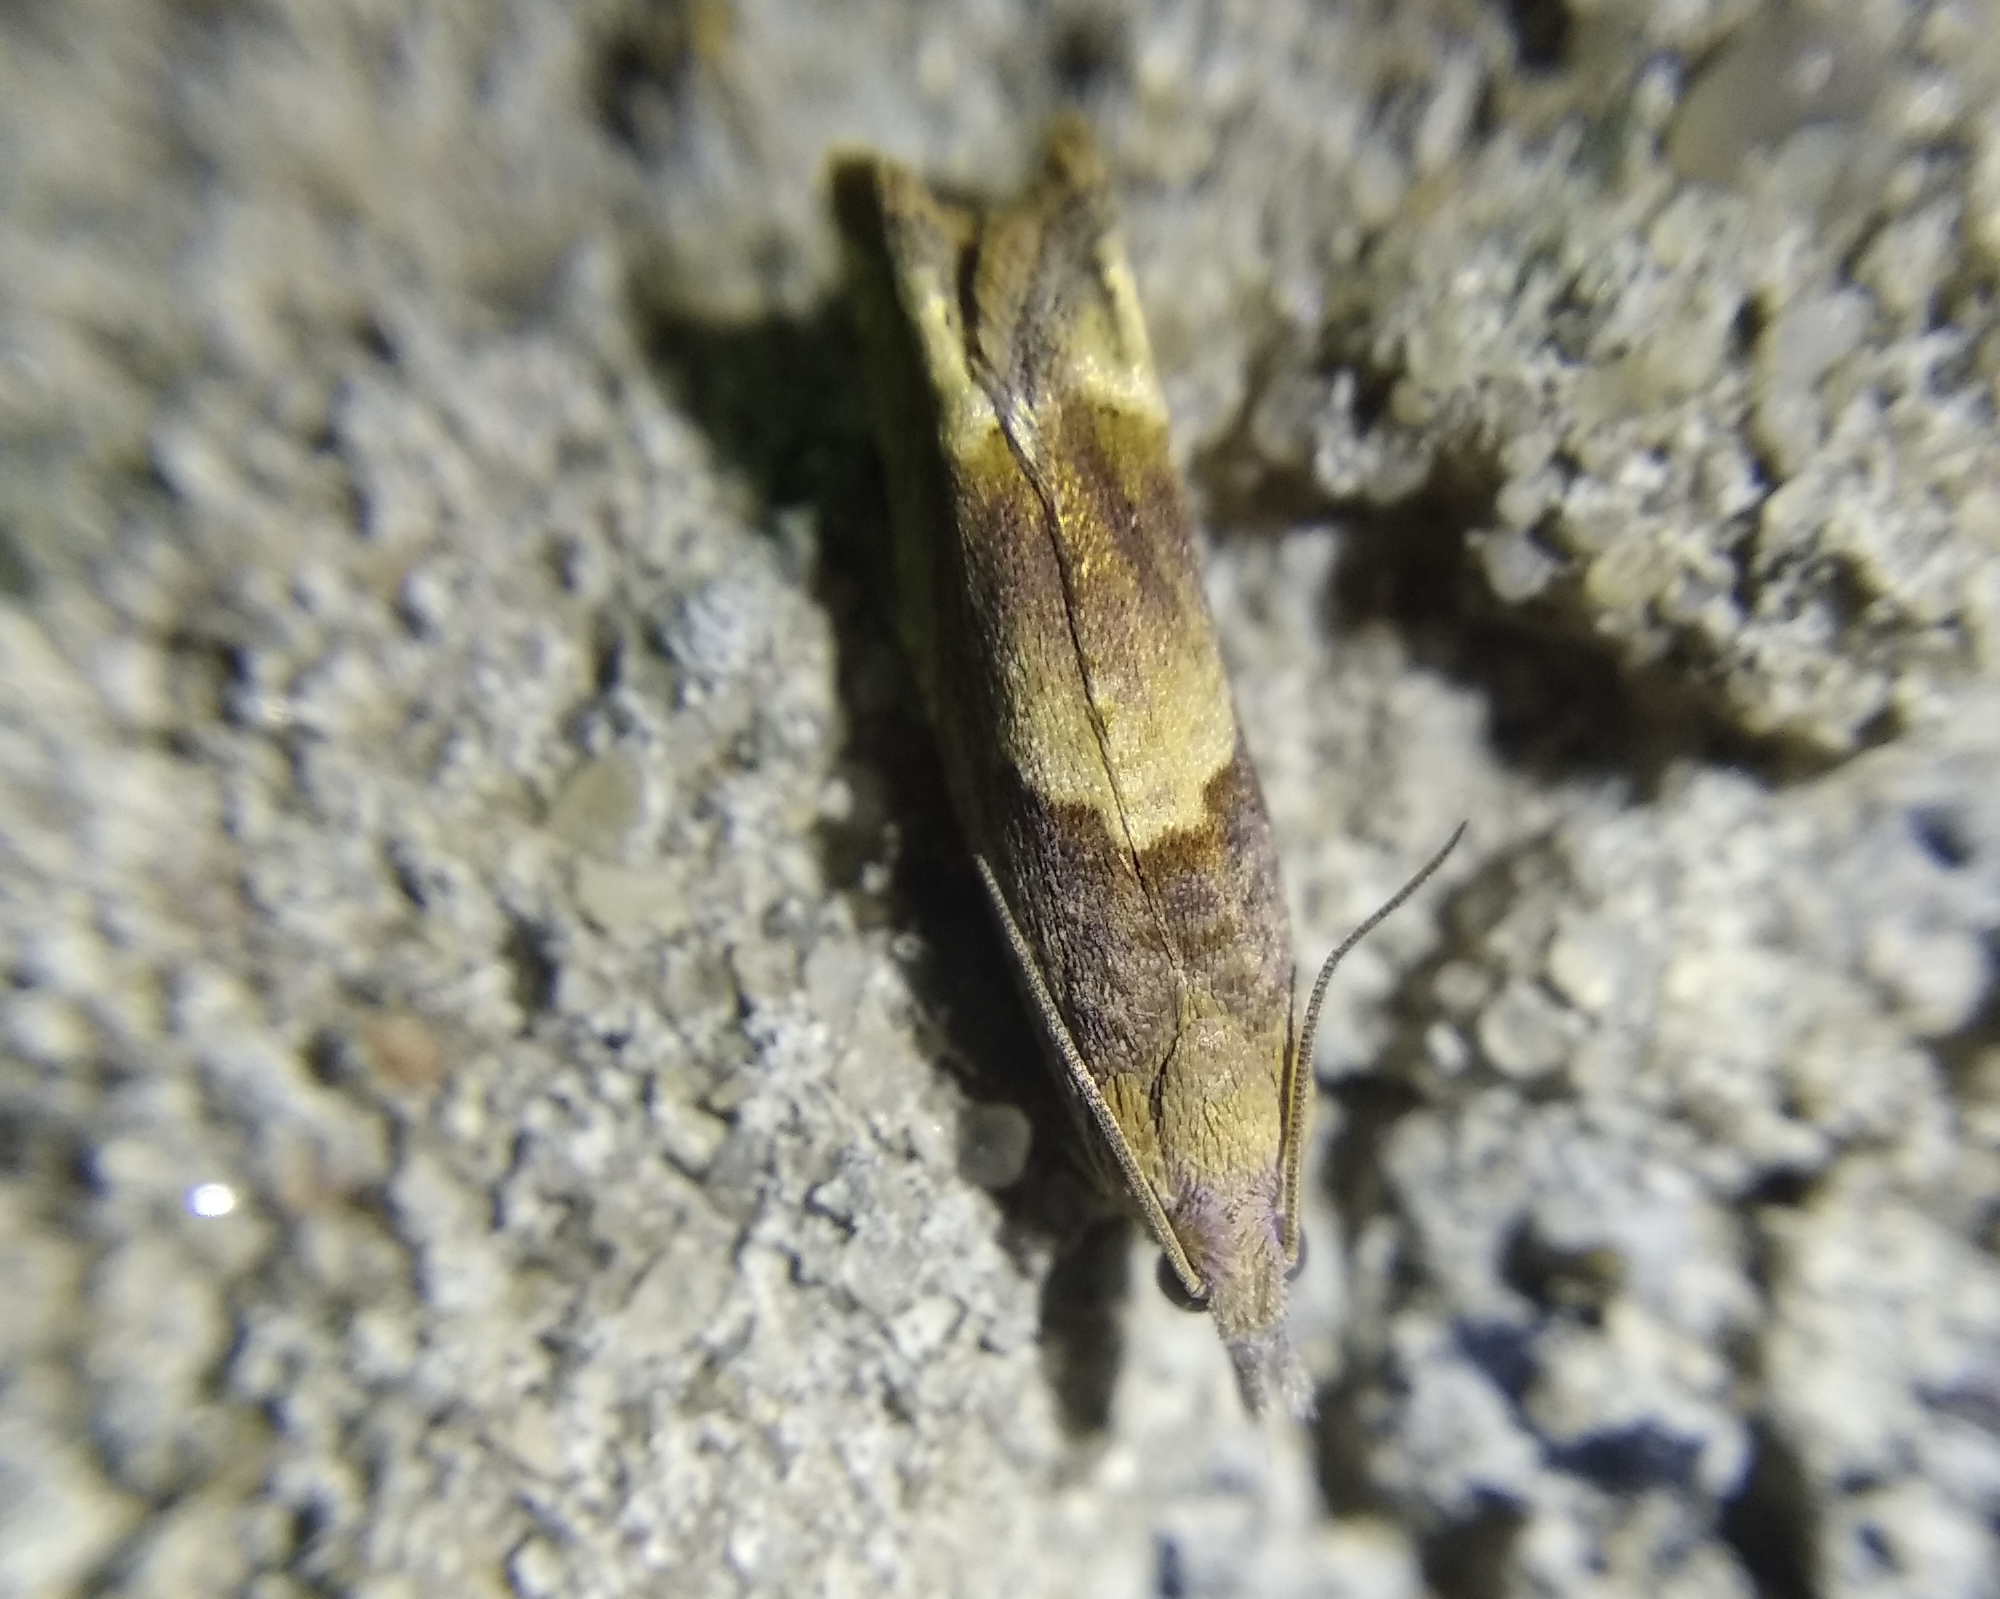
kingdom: Animalia
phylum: Arthropoda
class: Insecta
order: Lepidoptera
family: Tortricidae
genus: Eucosma
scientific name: Eucosma conterminana
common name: Pale lettuce bell
